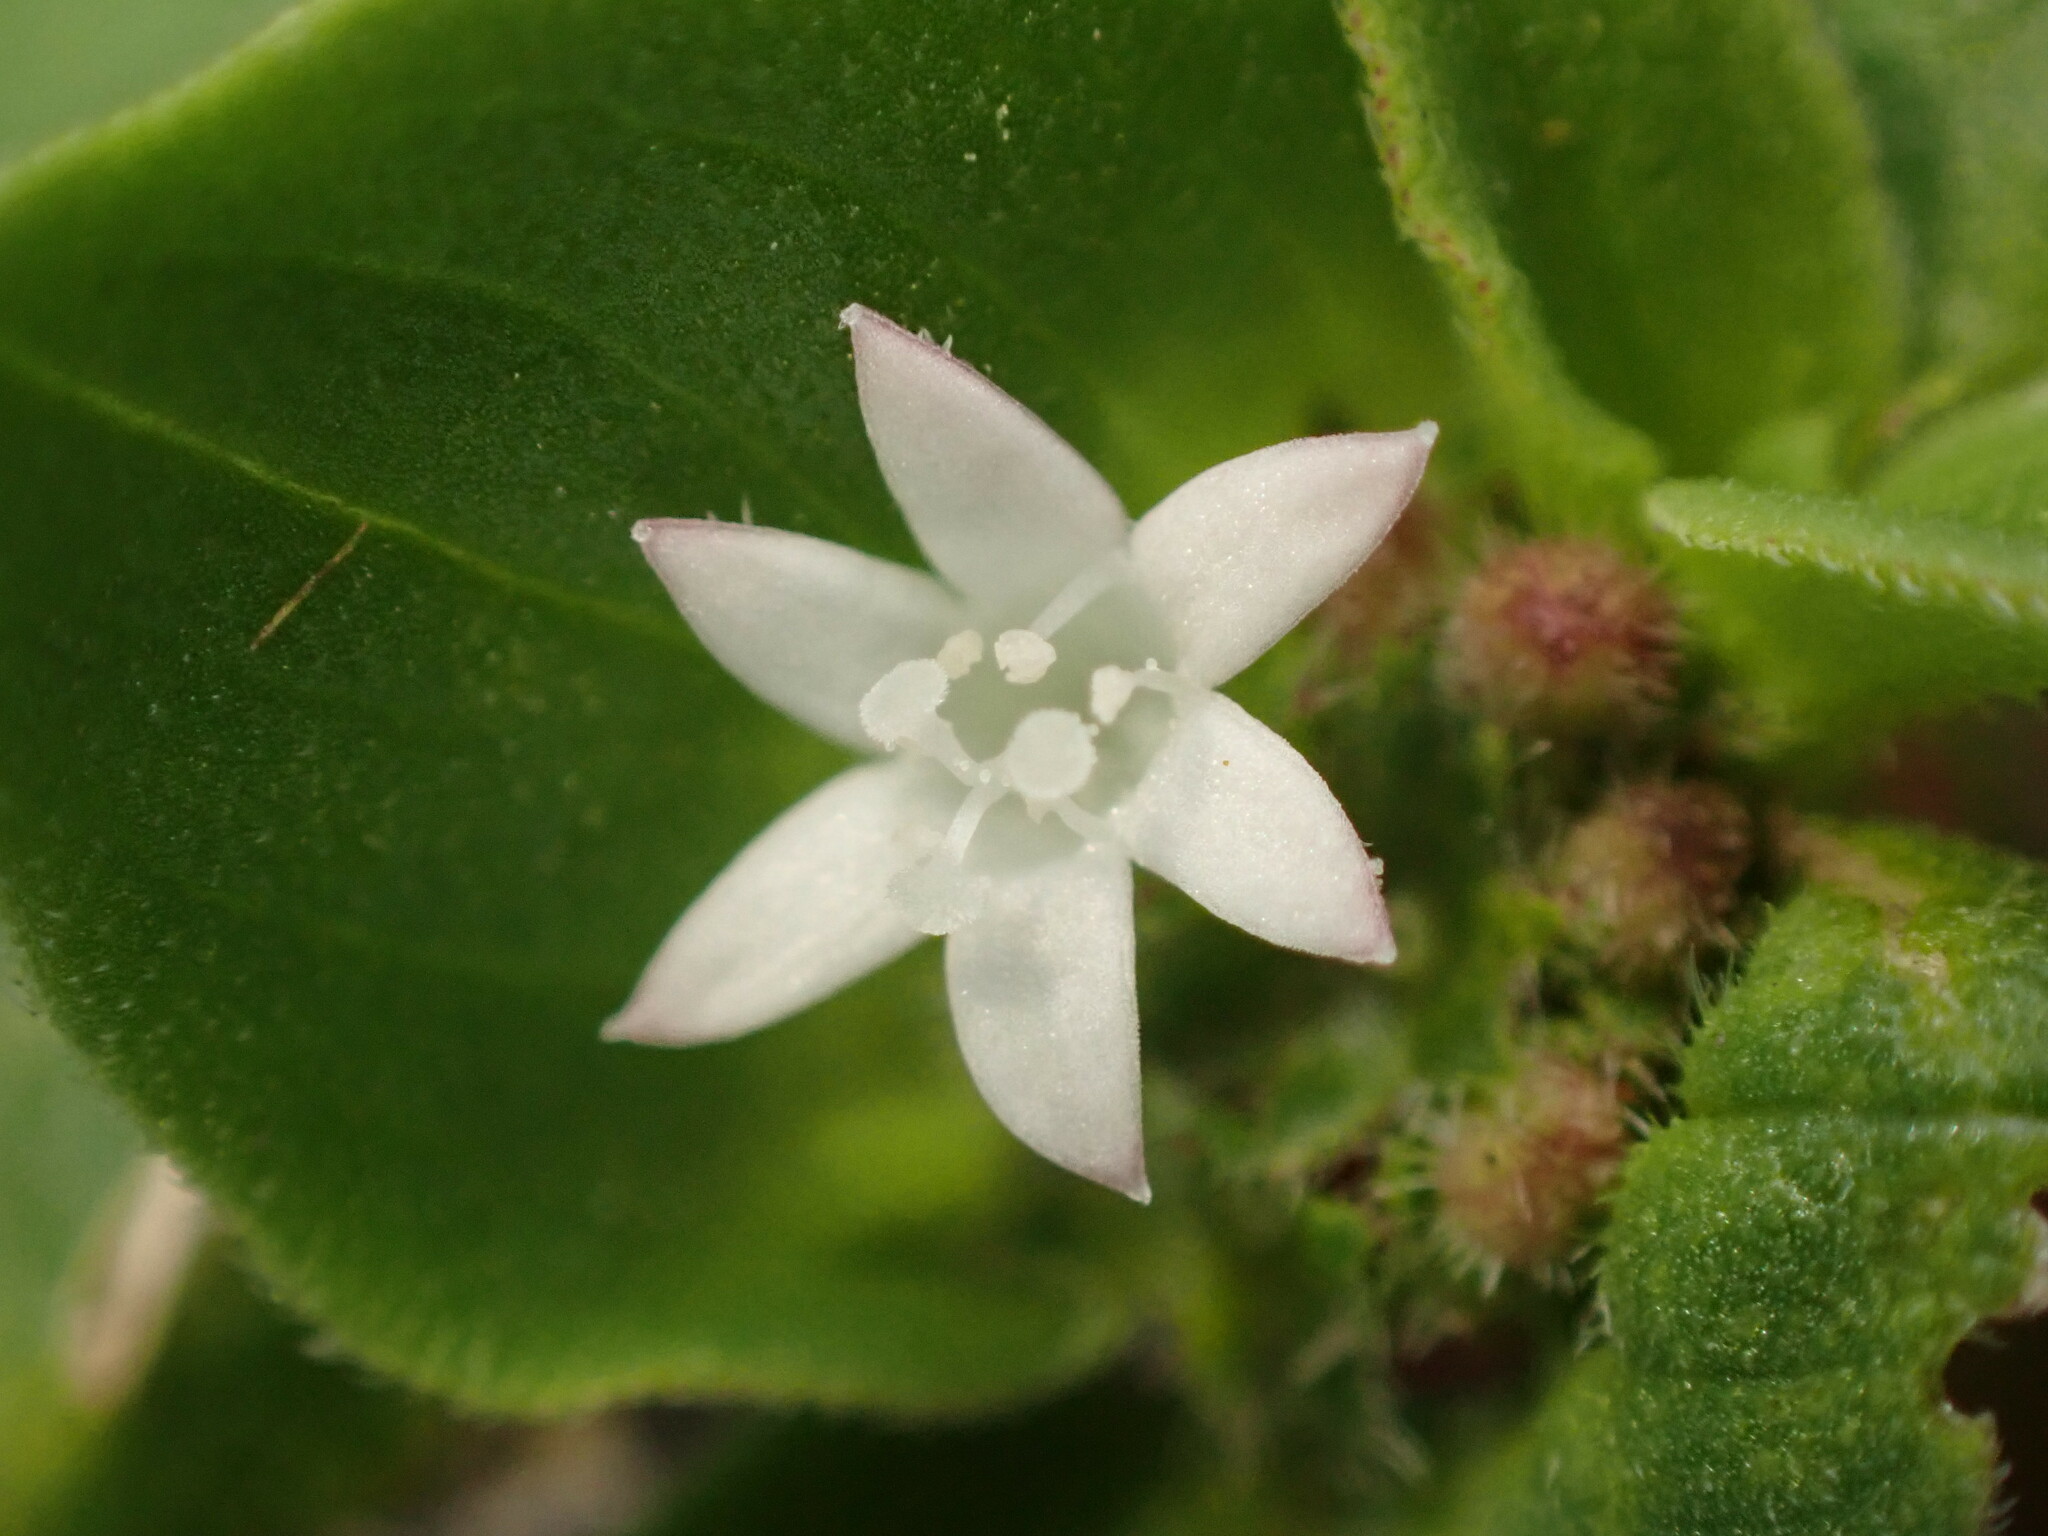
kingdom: Plantae
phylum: Tracheophyta
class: Magnoliopsida
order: Gentianales
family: Rubiaceae
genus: Richardia
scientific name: Richardia brasiliensis
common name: Tropical mexican clover
